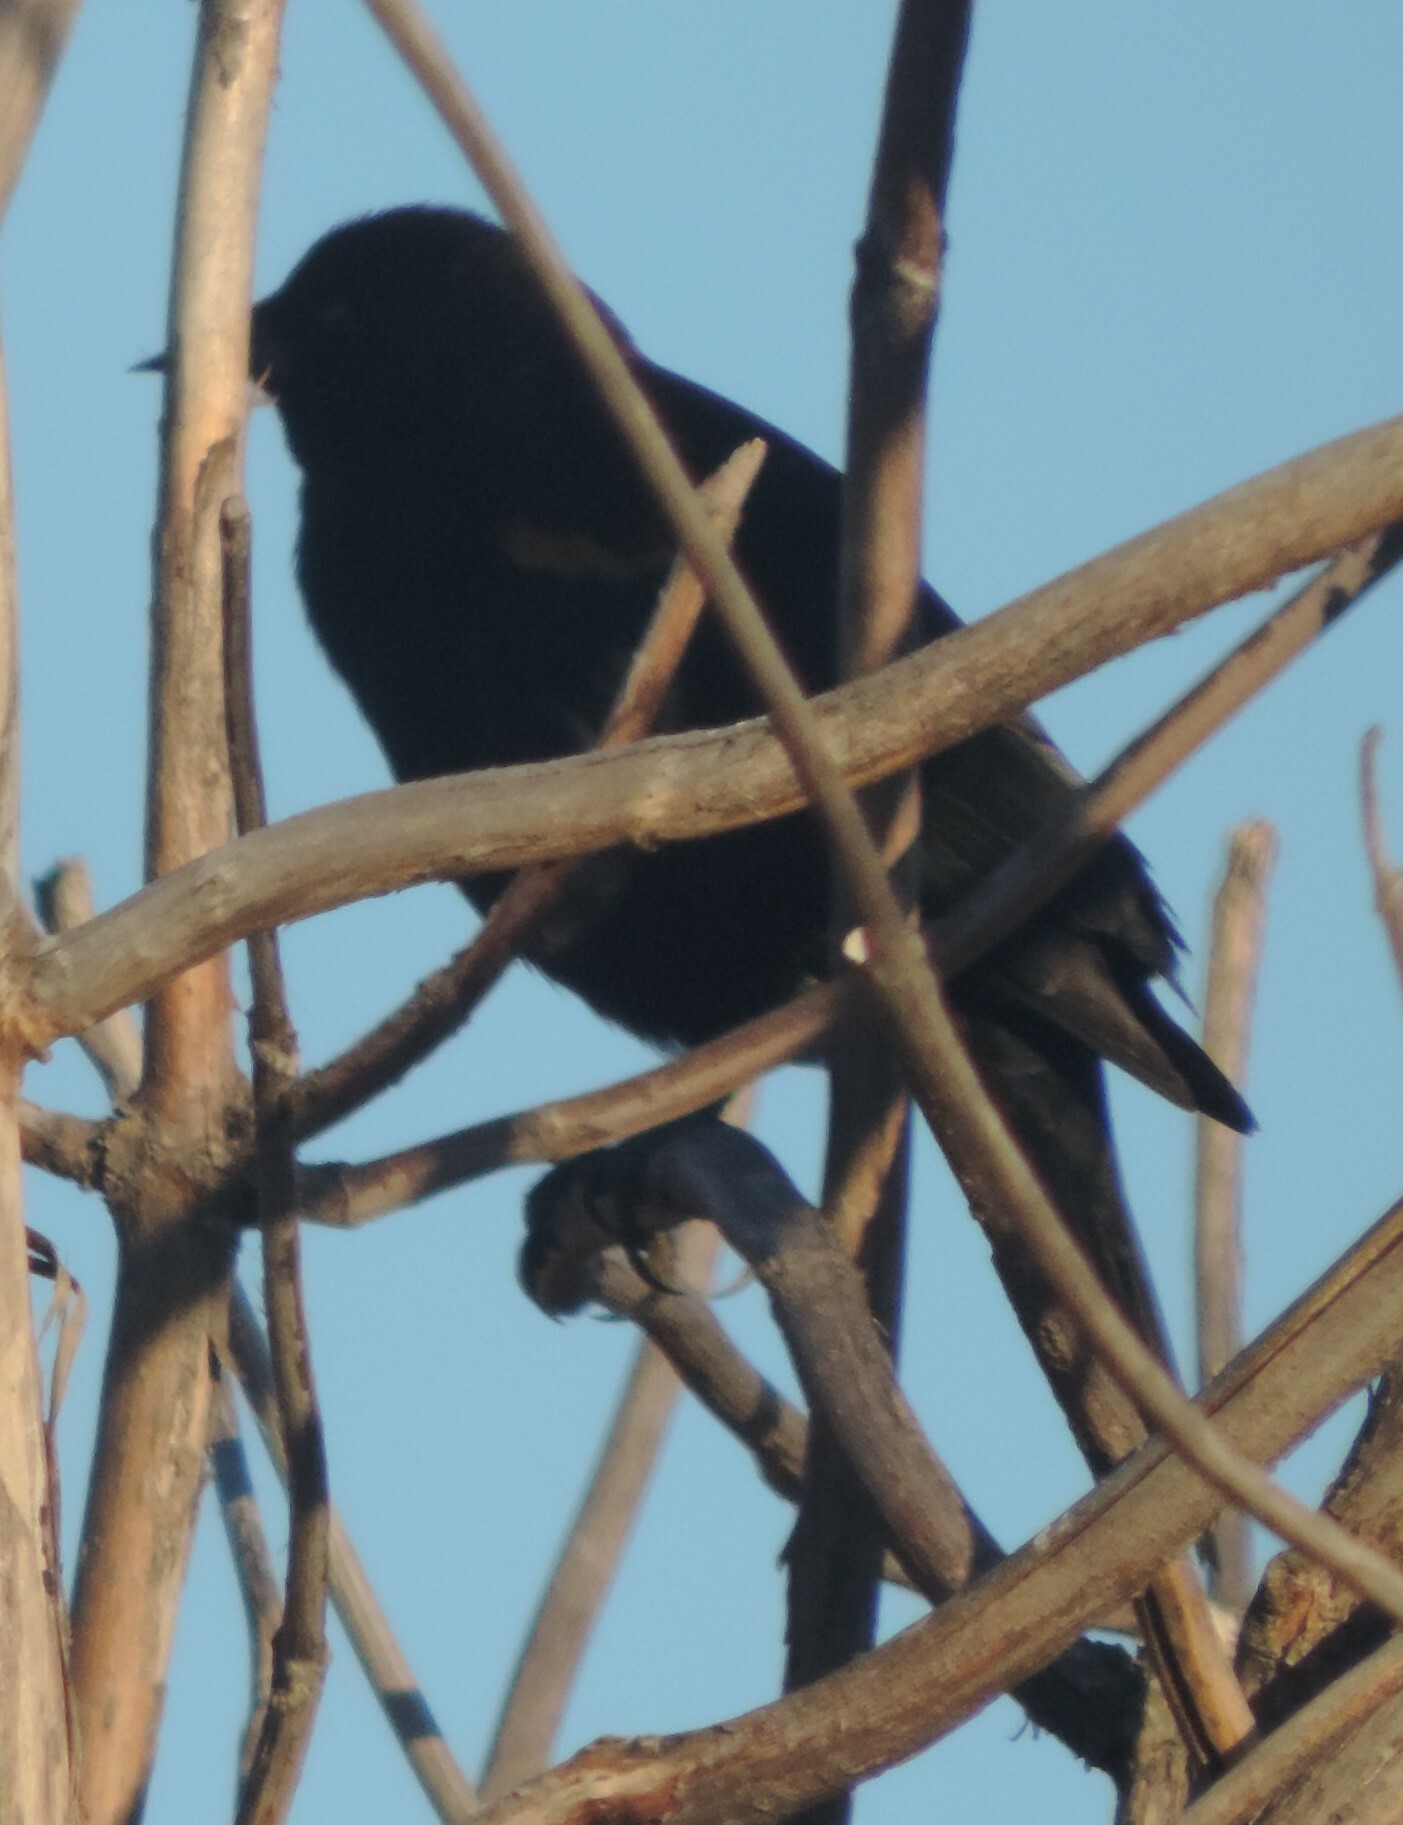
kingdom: Animalia
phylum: Chordata
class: Aves
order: Passeriformes
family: Icteridae
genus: Agelaius
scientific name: Agelaius phoeniceus
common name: Red-winged blackbird
